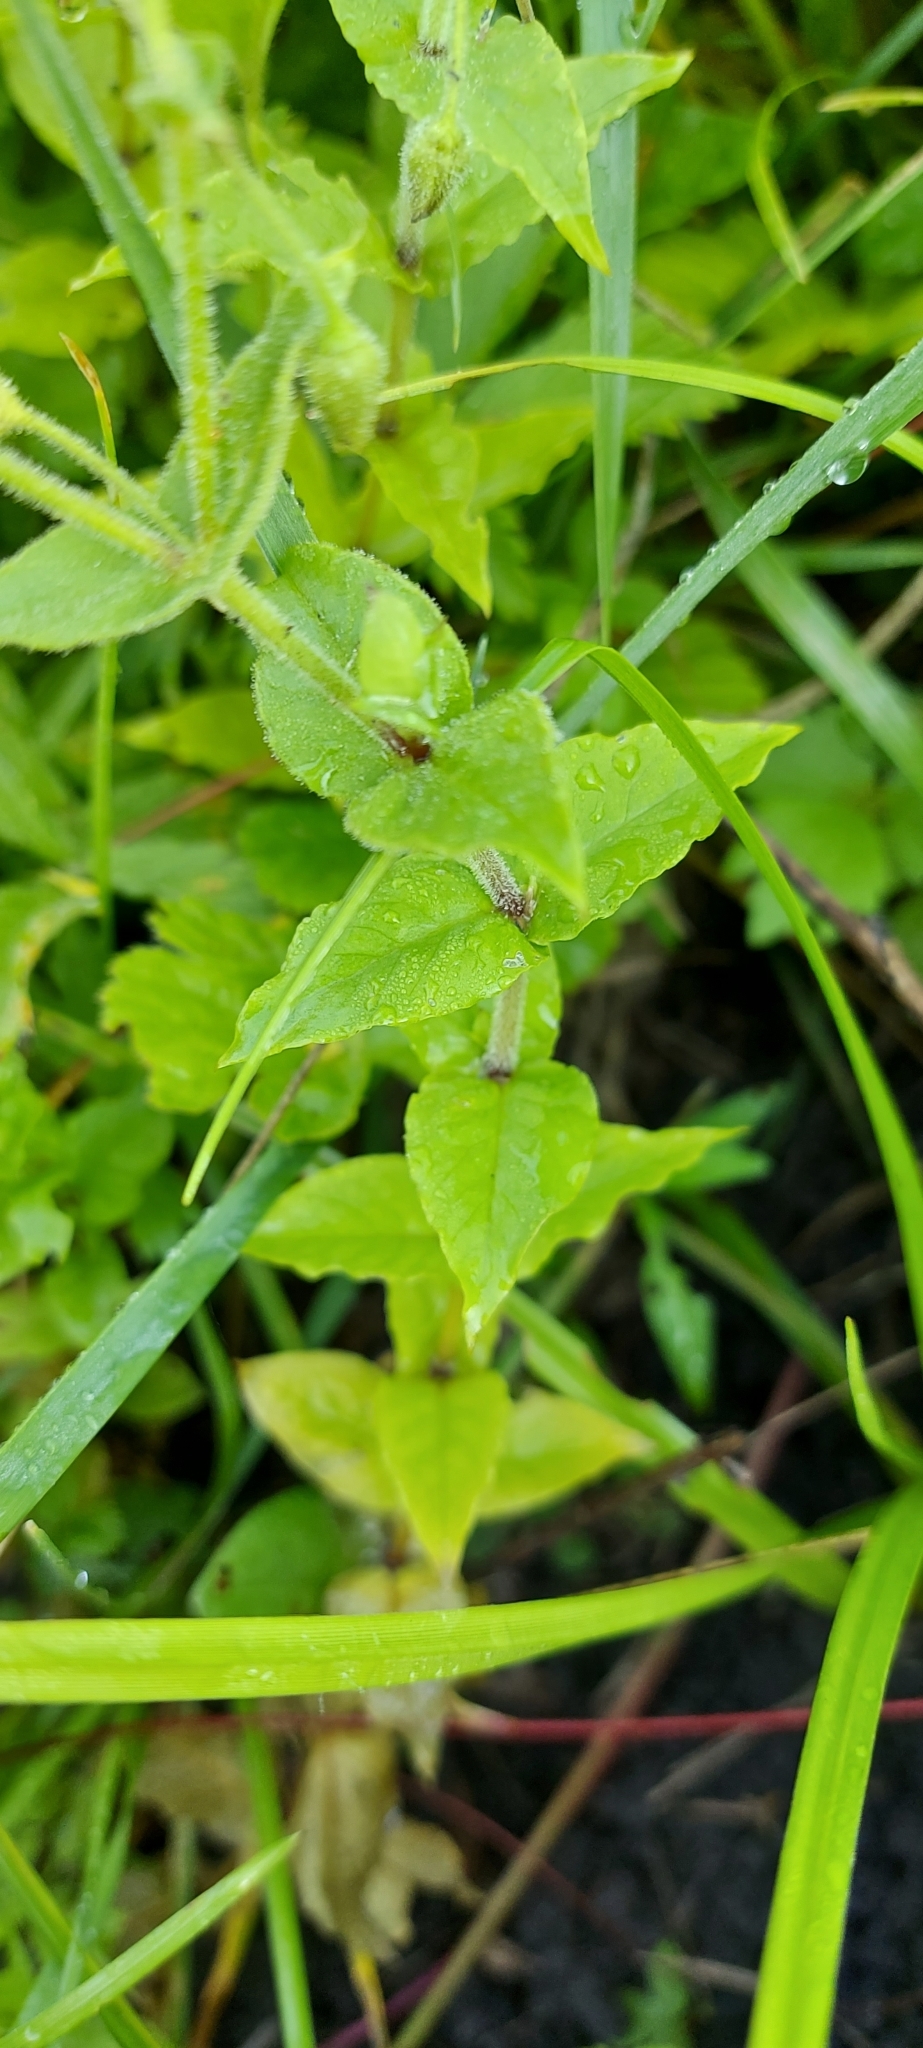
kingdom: Plantae
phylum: Tracheophyta
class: Magnoliopsida
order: Caryophyllales
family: Caryophyllaceae
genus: Stellaria
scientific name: Stellaria aquatica
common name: Water chickweed
